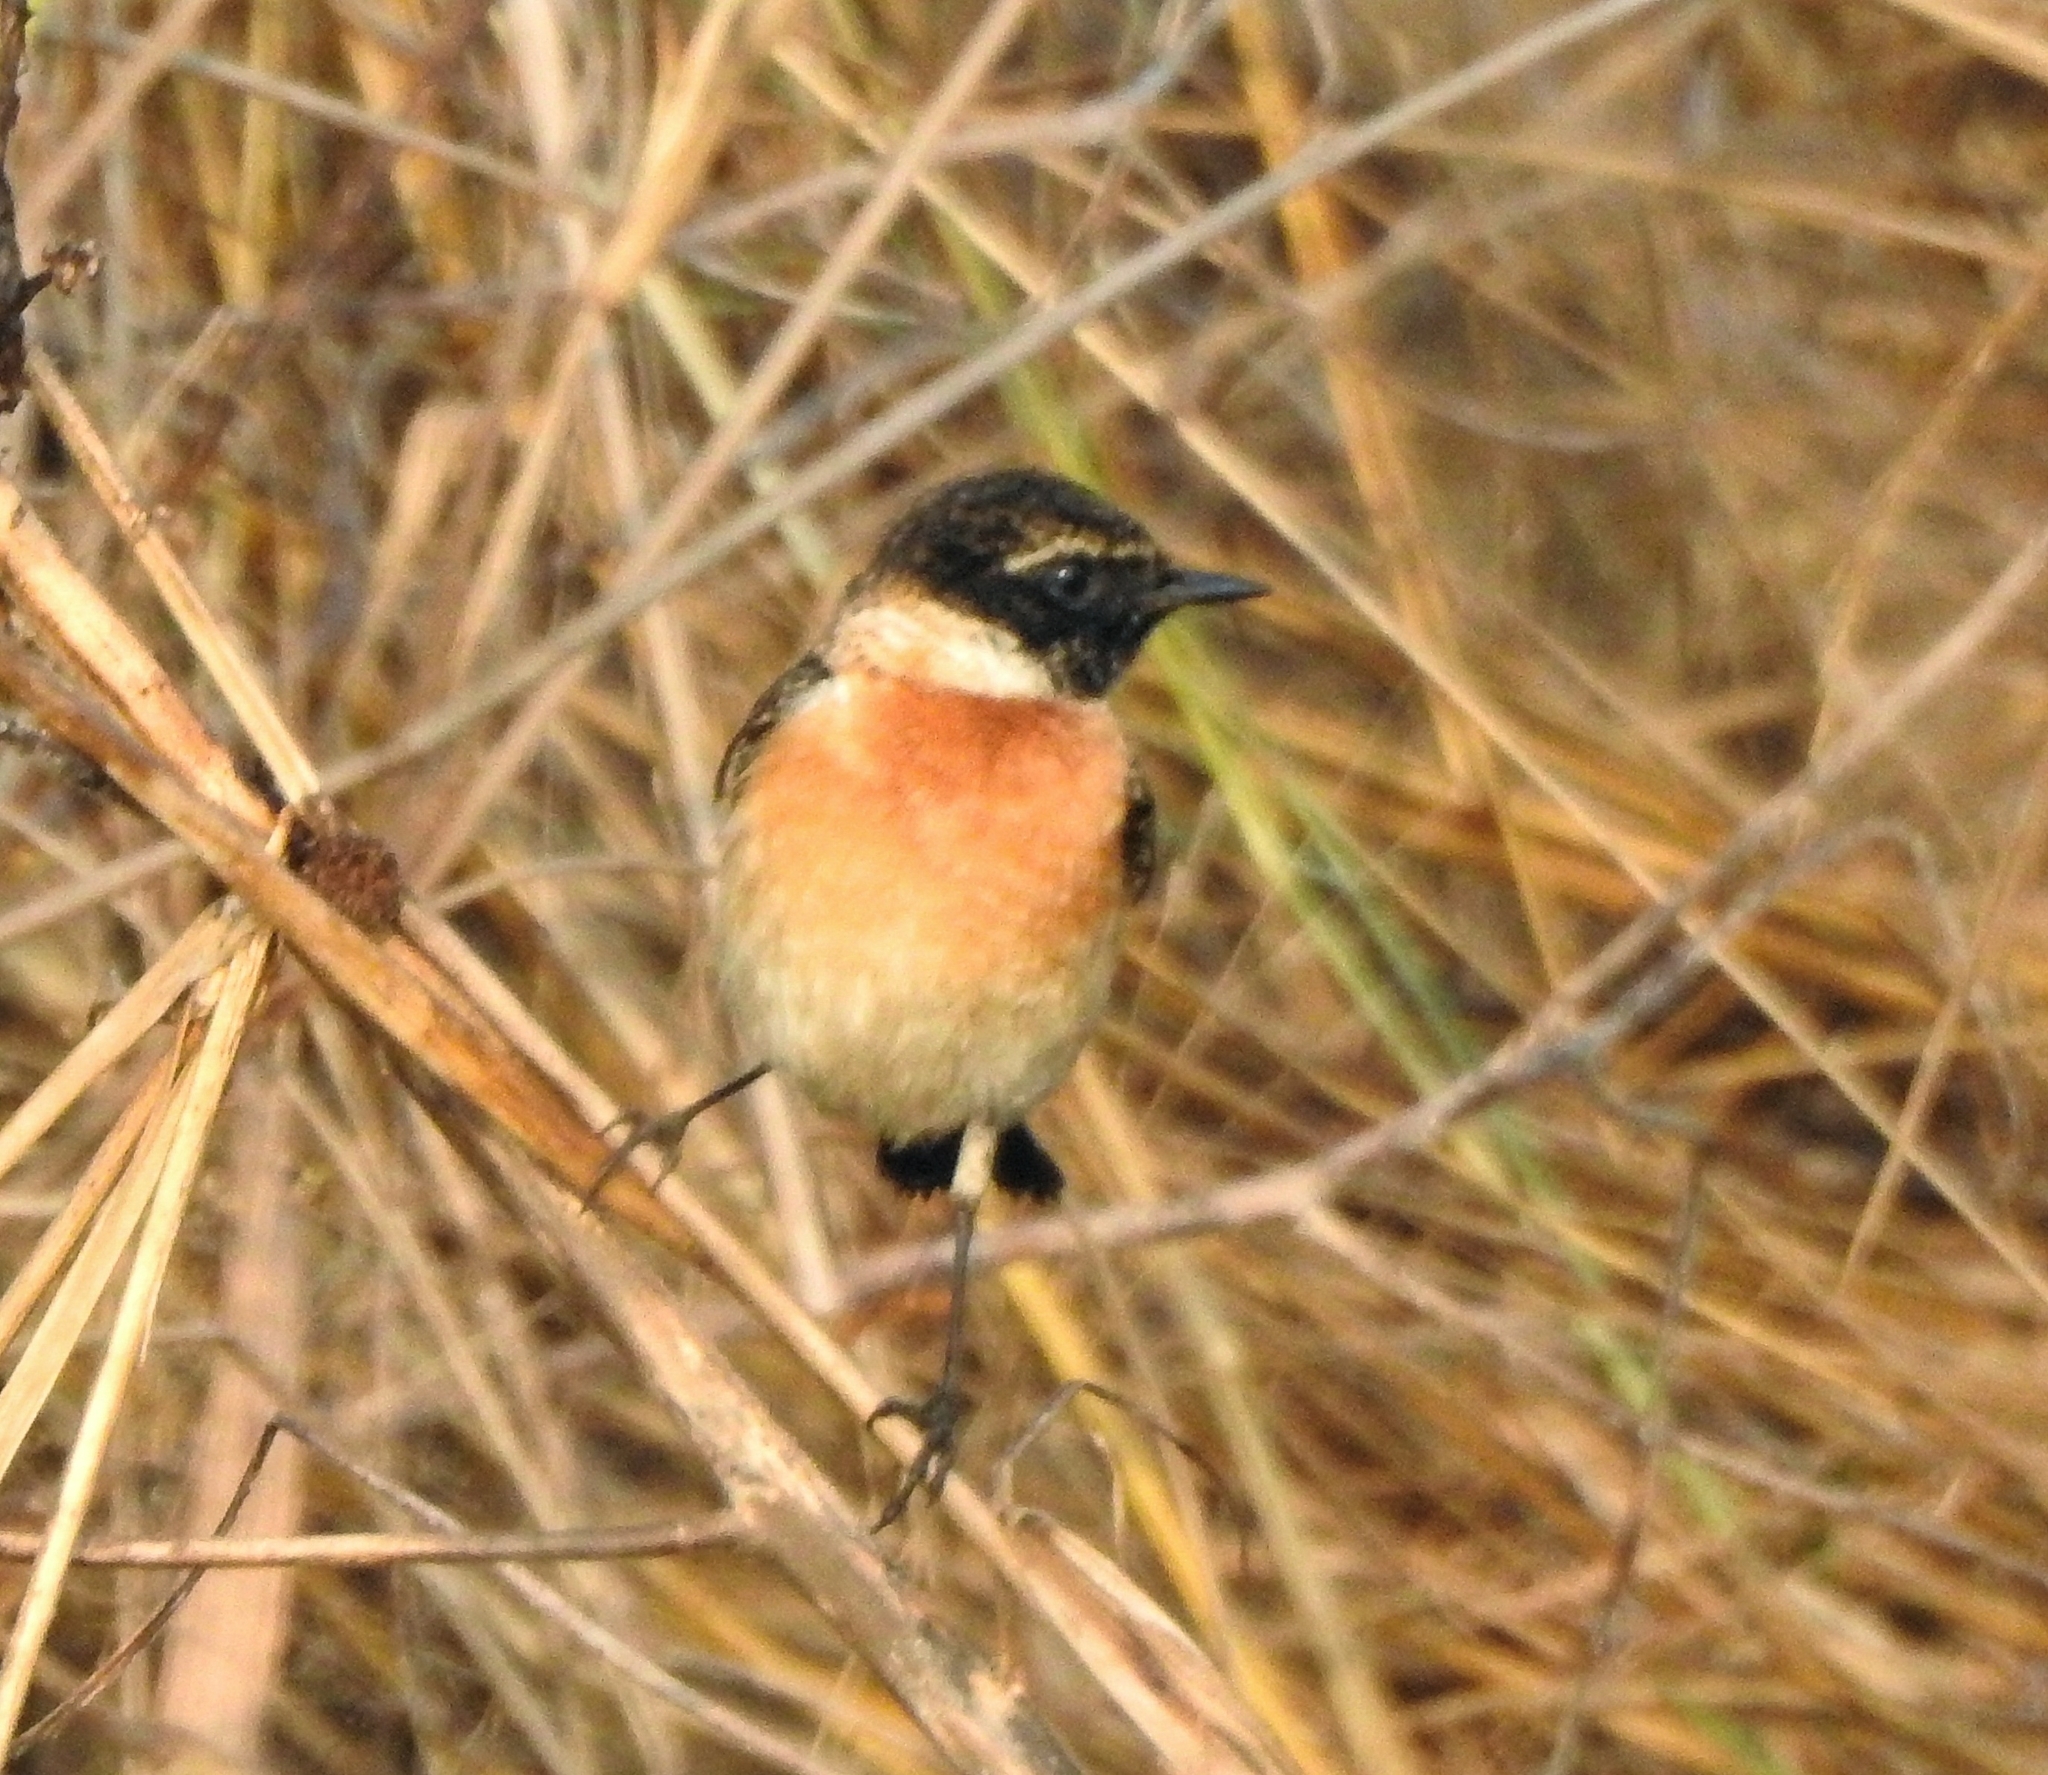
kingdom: Animalia
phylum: Chordata
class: Aves
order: Passeriformes
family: Muscicapidae
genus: Saxicola
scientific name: Saxicola maurus
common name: Siberian stonechat
